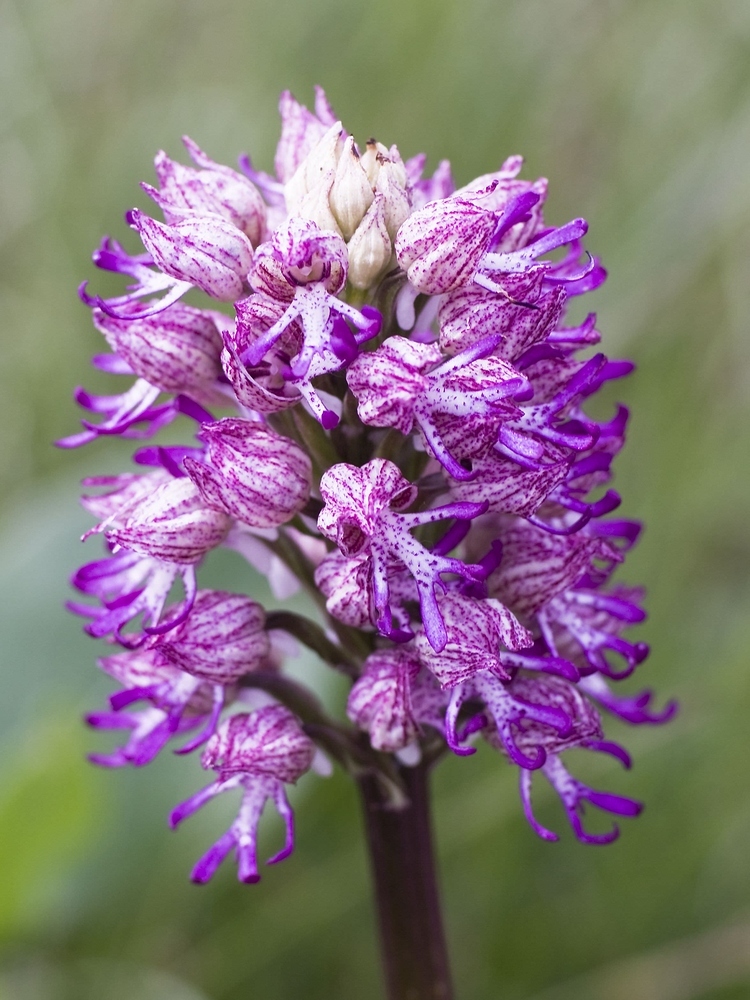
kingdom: Plantae
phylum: Tracheophyta
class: Liliopsida
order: Asparagales
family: Orchidaceae
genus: Orchis
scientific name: Orchis angusticruris
